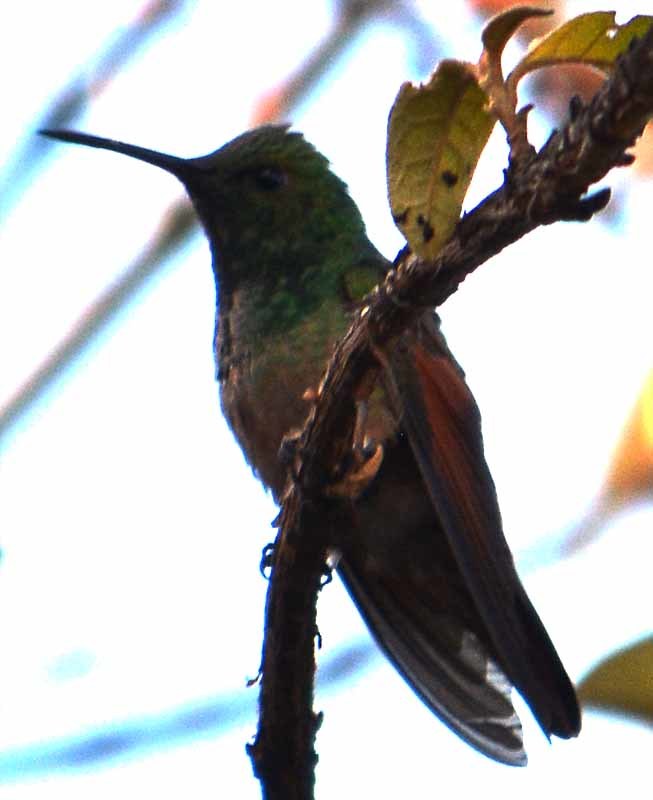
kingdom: Animalia
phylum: Chordata
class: Aves
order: Apodiformes
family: Trochilidae
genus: Saucerottia
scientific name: Saucerottia beryllina
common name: Berylline hummingbird
